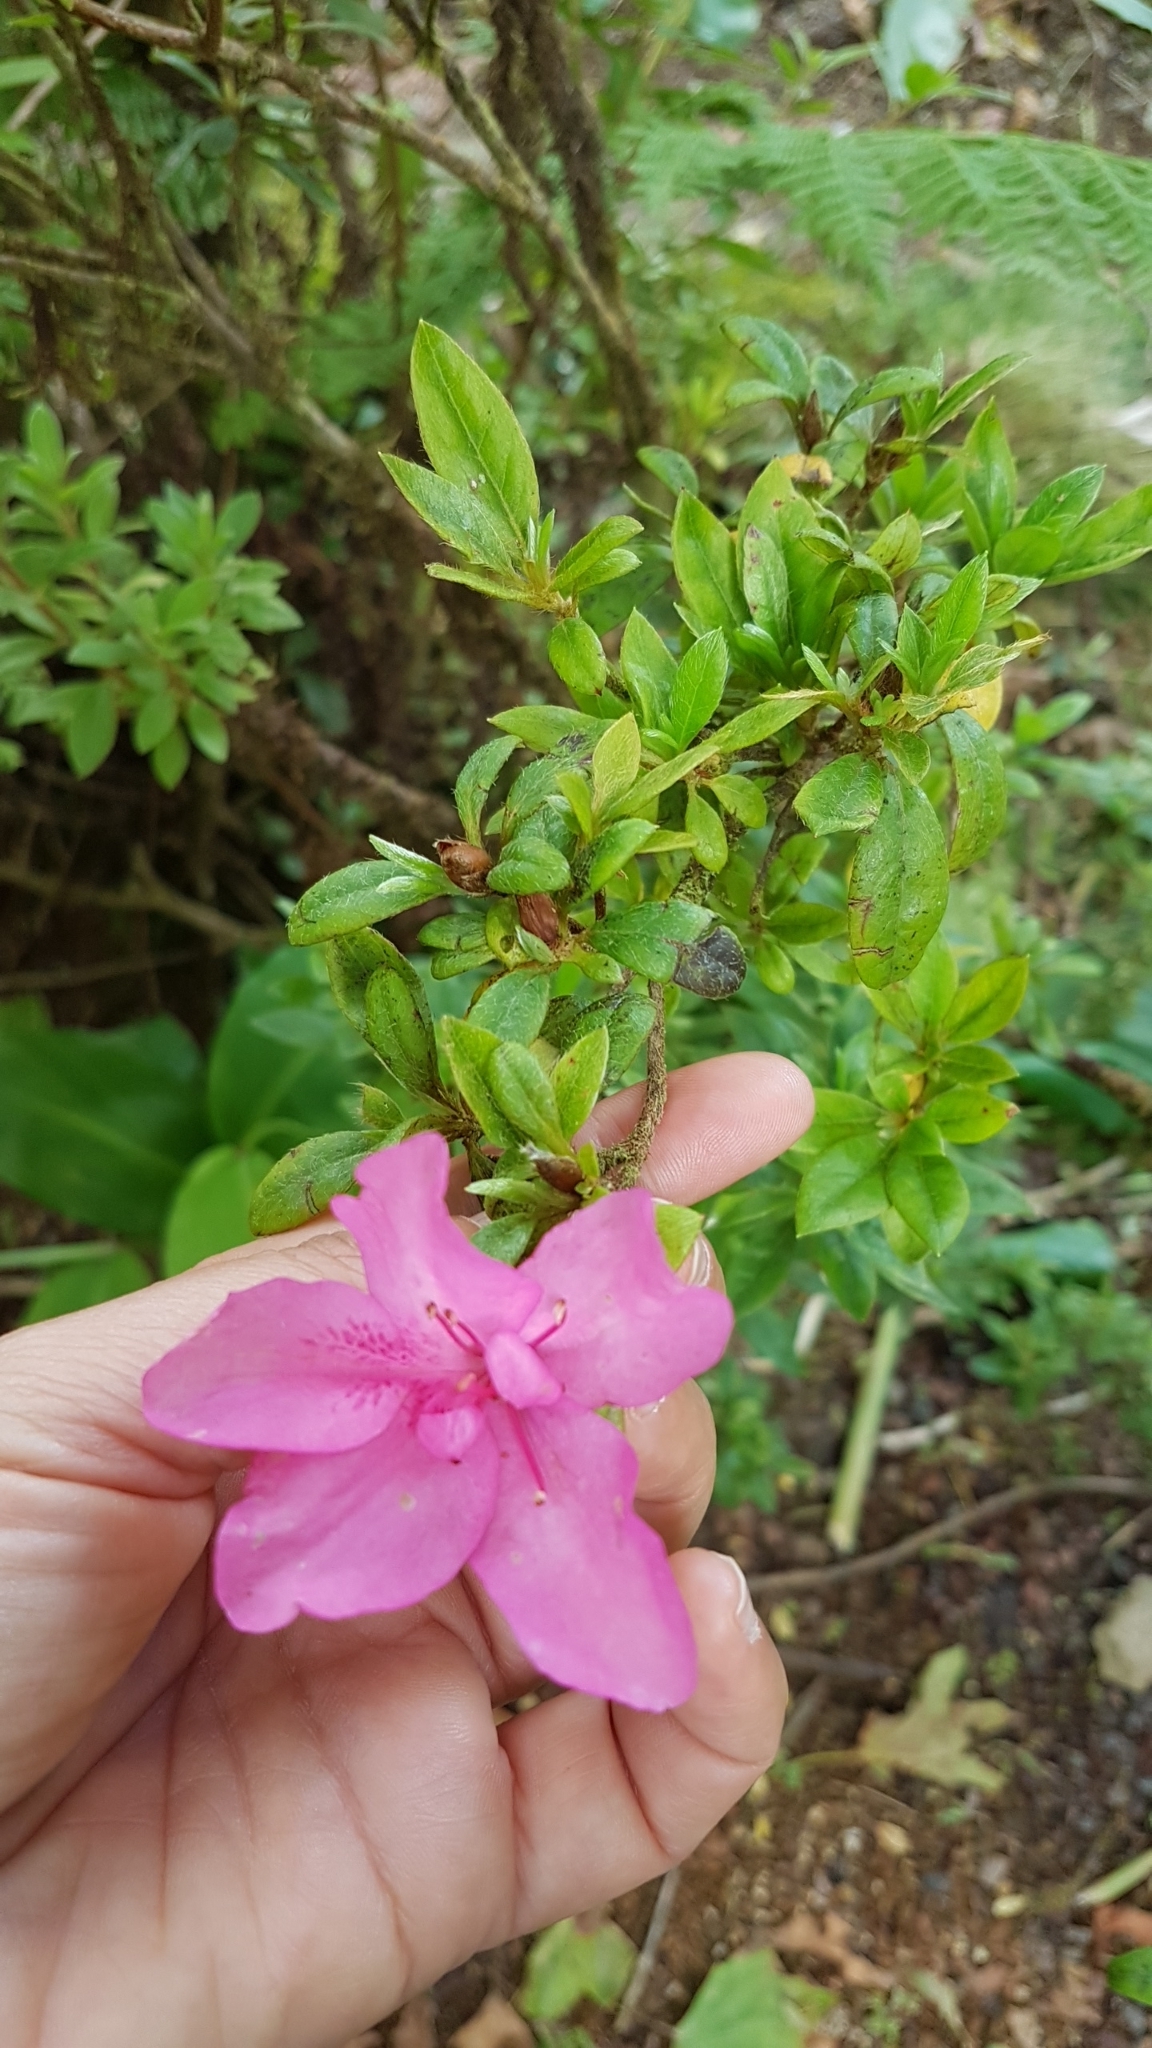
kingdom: Plantae
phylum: Tracheophyta
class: Magnoliopsida
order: Ericales
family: Ericaceae
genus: Rhododendron
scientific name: Rhododendron indicum
